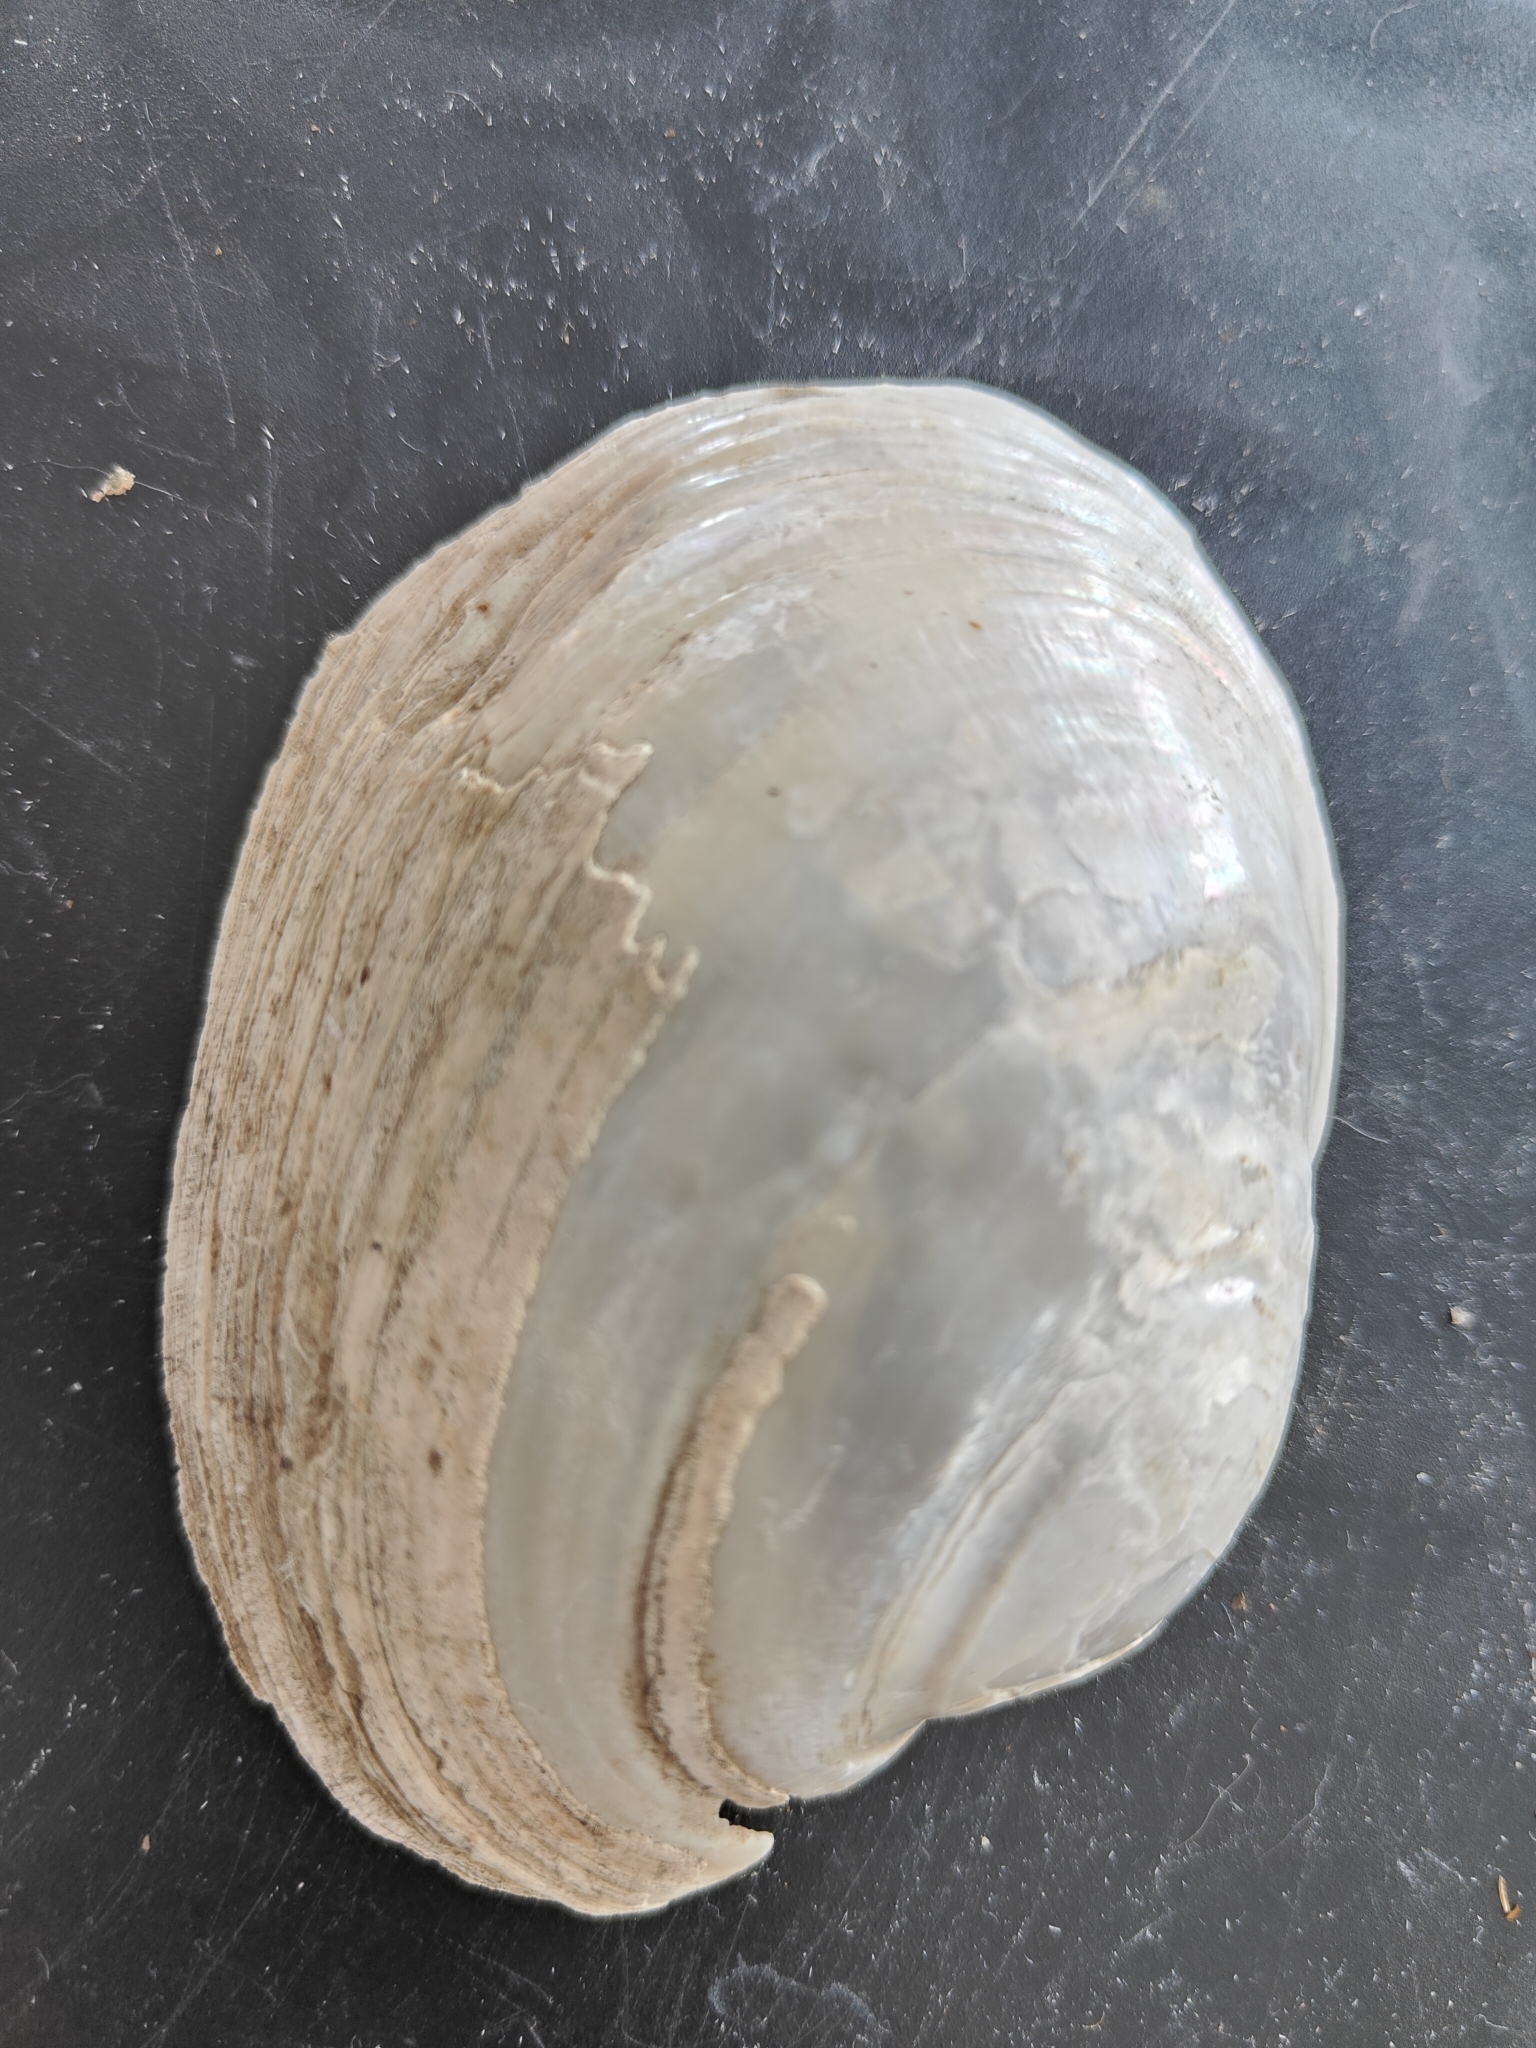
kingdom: Animalia
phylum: Mollusca
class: Bivalvia
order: Unionida
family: Unionidae
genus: Lampsilis
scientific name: Lampsilis cardium
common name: Plain pocketbook
